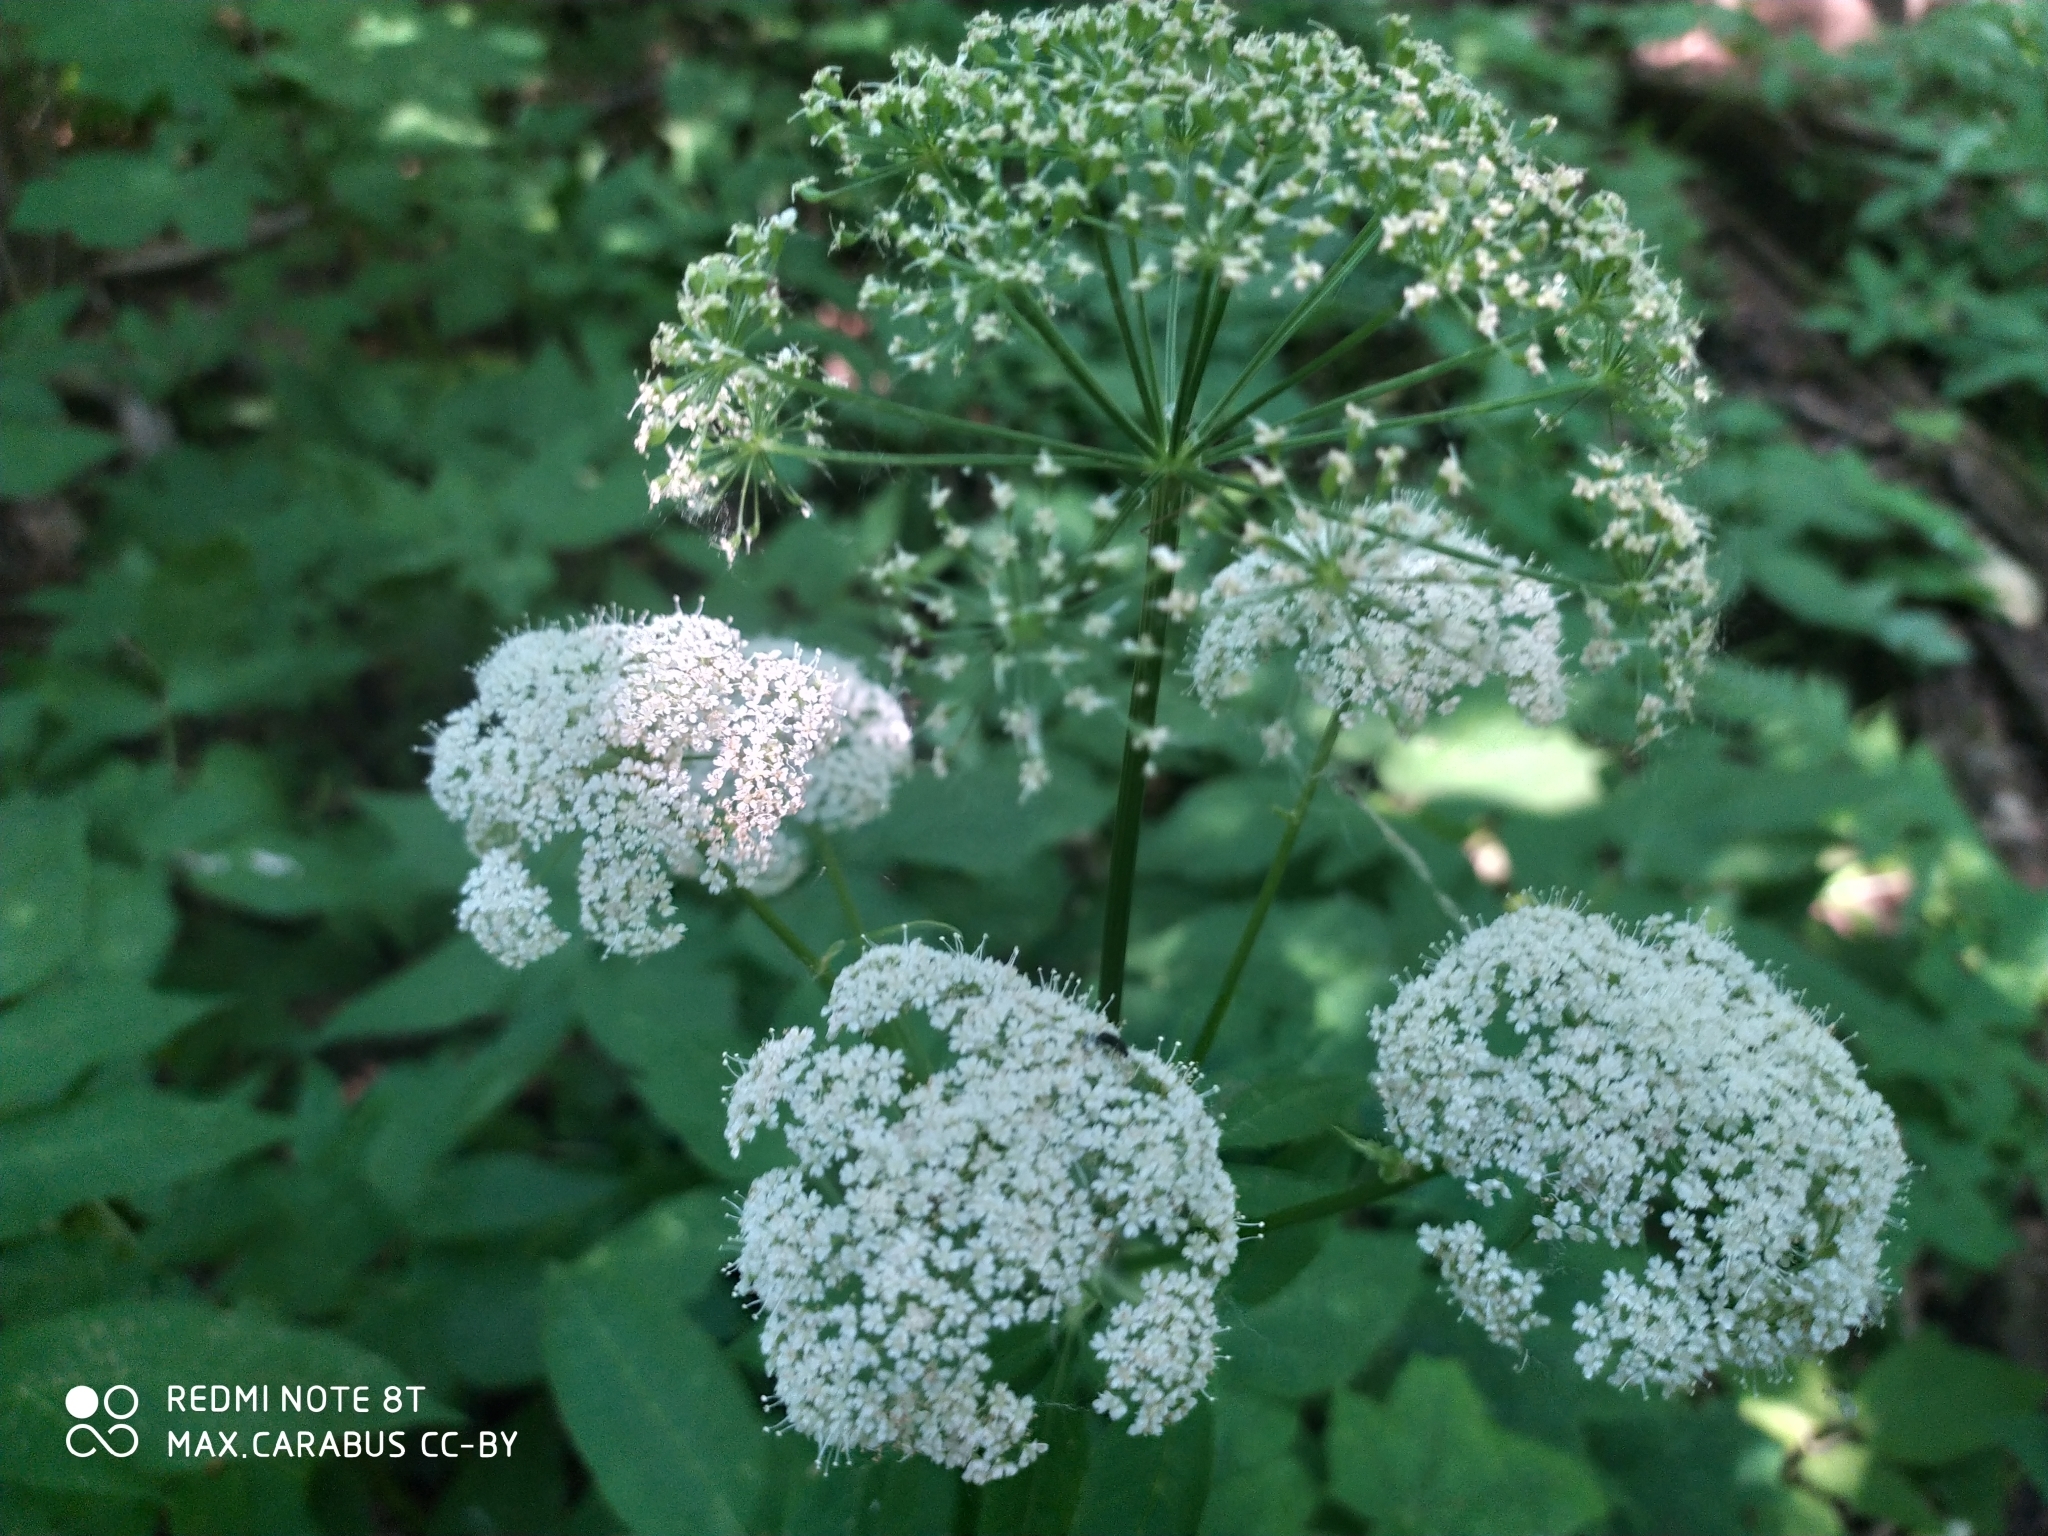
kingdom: Plantae
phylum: Tracheophyta
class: Magnoliopsida
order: Apiales
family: Apiaceae
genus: Aegopodium
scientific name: Aegopodium podagraria
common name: Ground-elder
